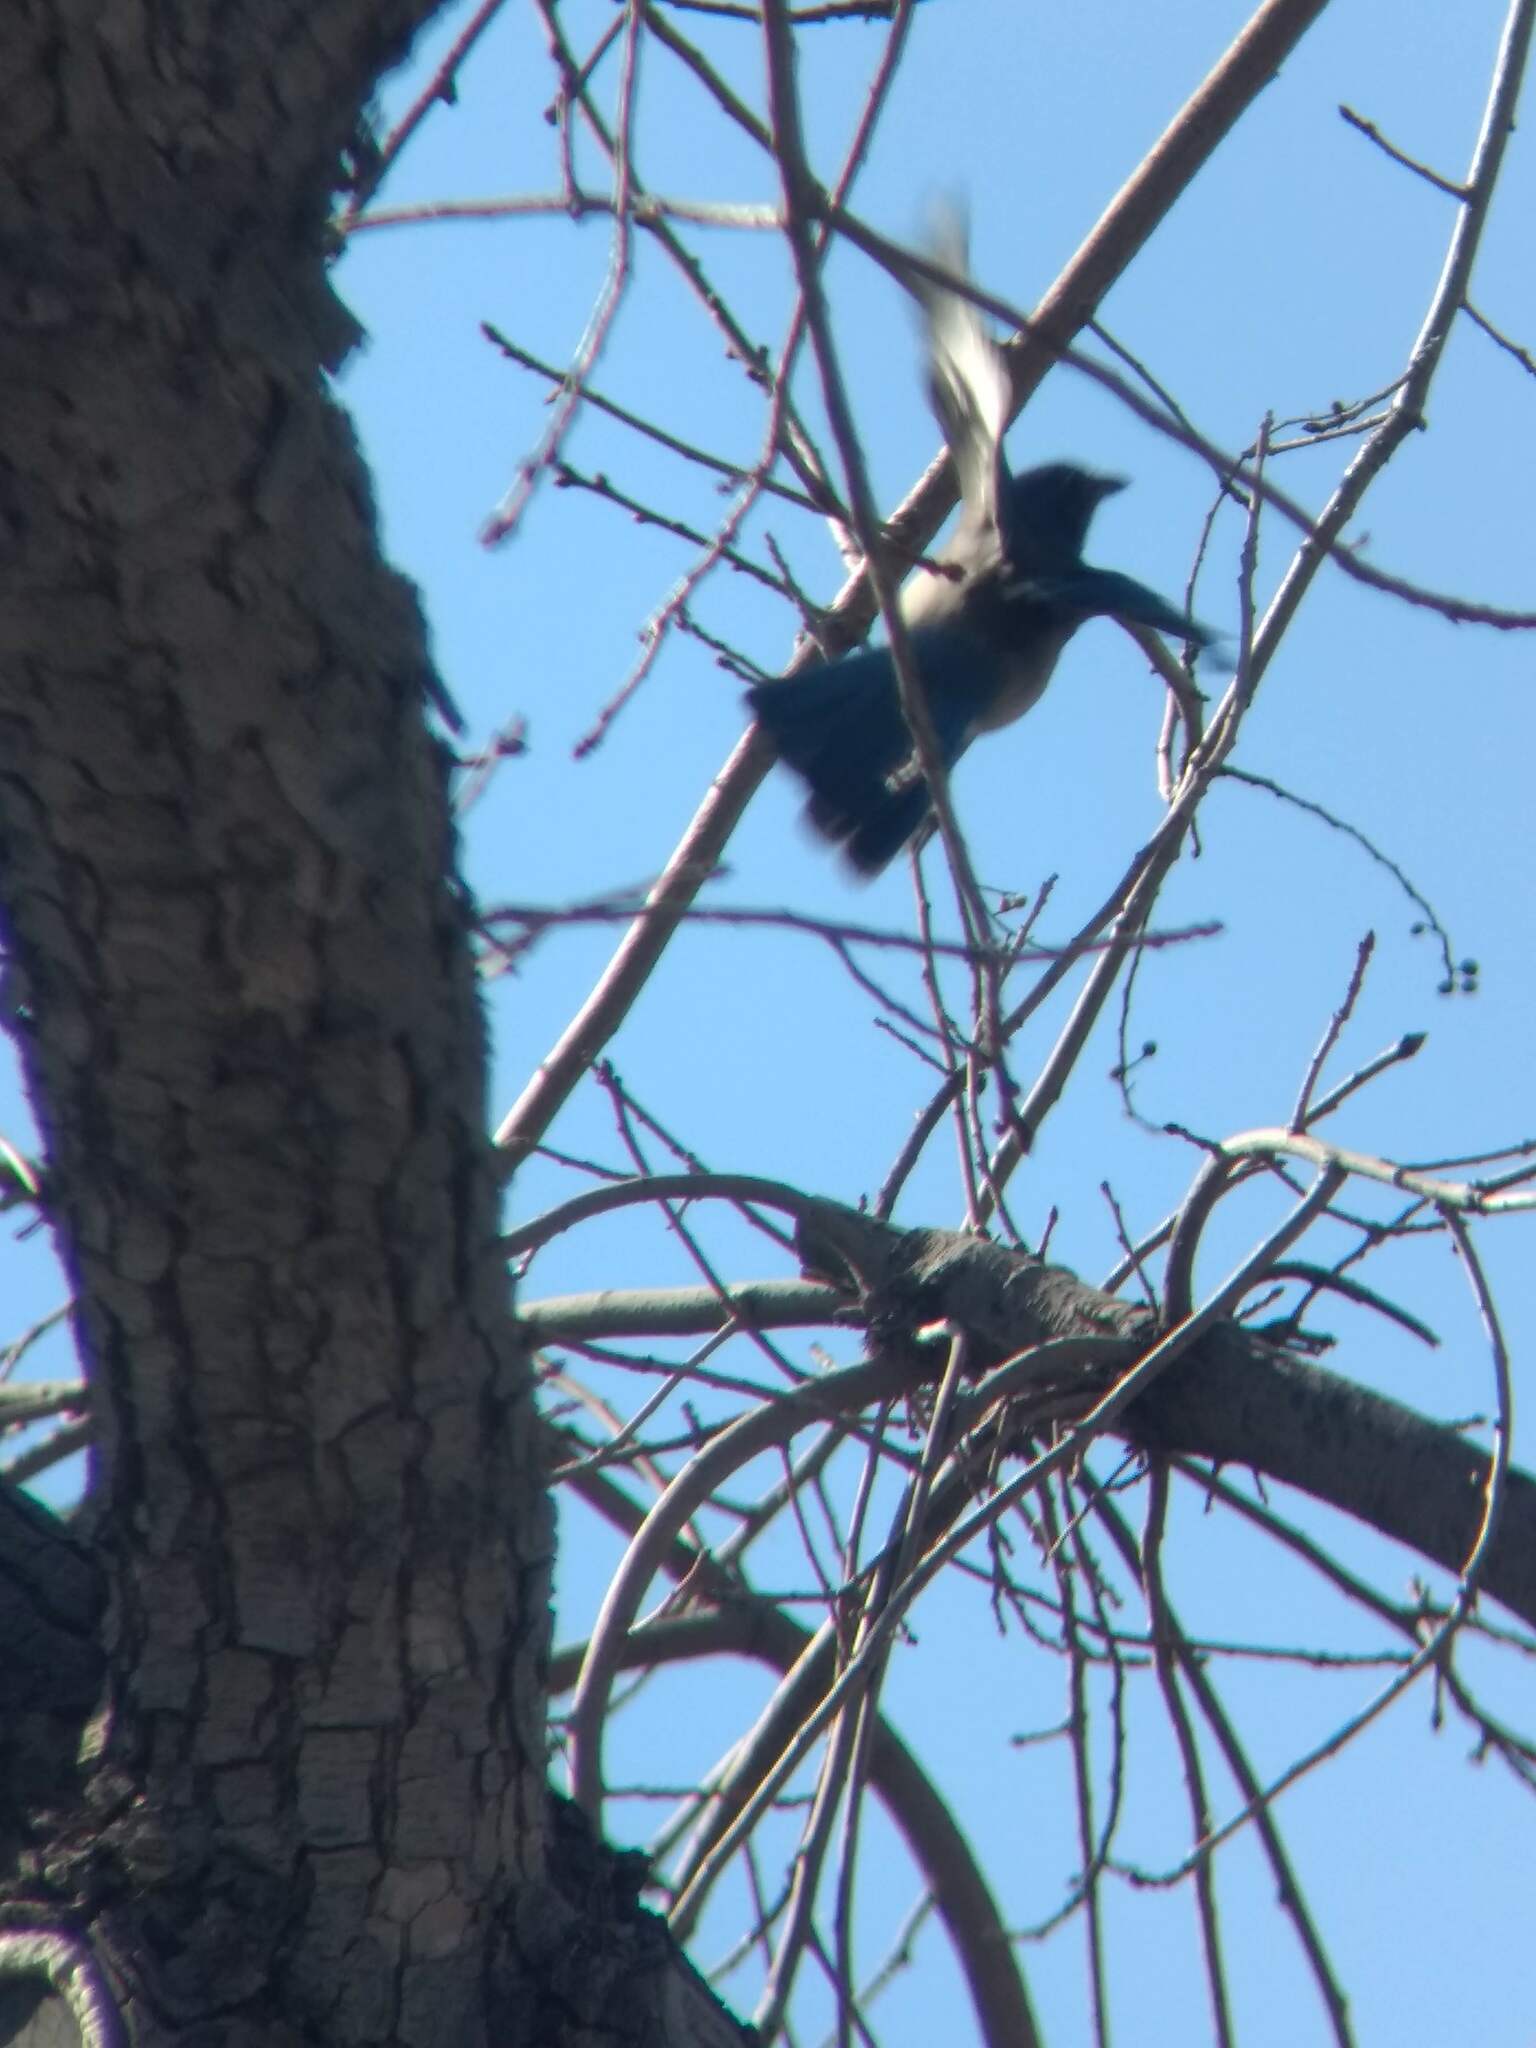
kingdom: Animalia
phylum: Chordata
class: Aves
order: Passeriformes
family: Corvidae
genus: Aphelocoma
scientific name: Aphelocoma californica
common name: California scrub-jay
